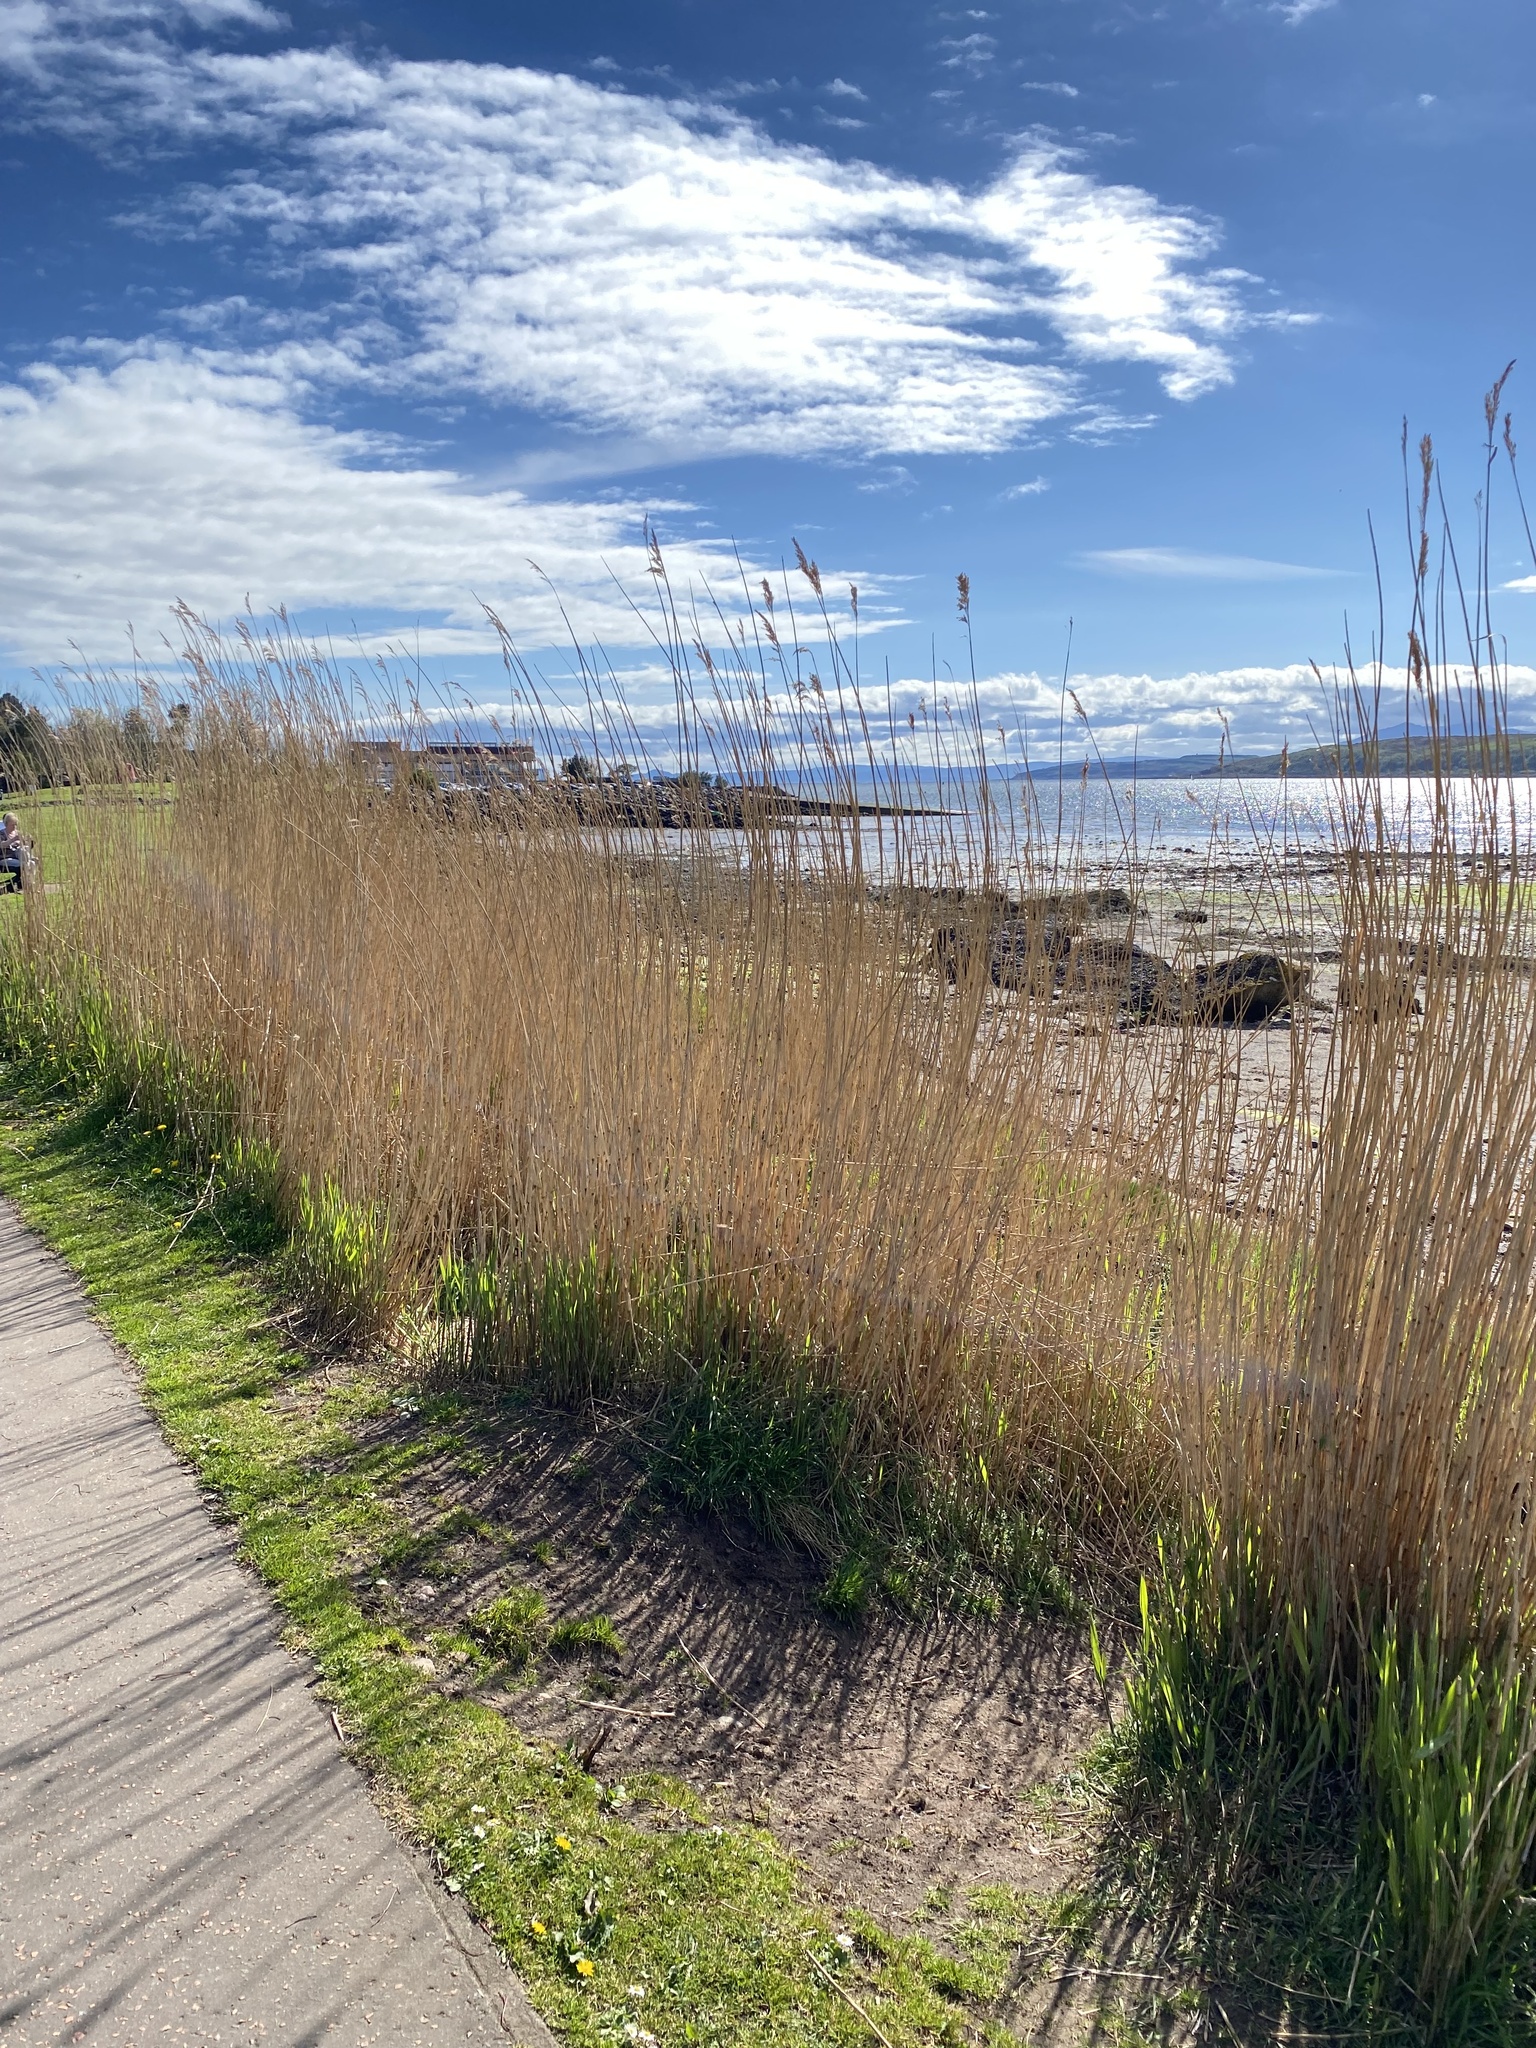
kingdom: Plantae
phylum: Tracheophyta
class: Liliopsida
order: Poales
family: Poaceae
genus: Phragmites
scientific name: Phragmites australis
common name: Common reed
